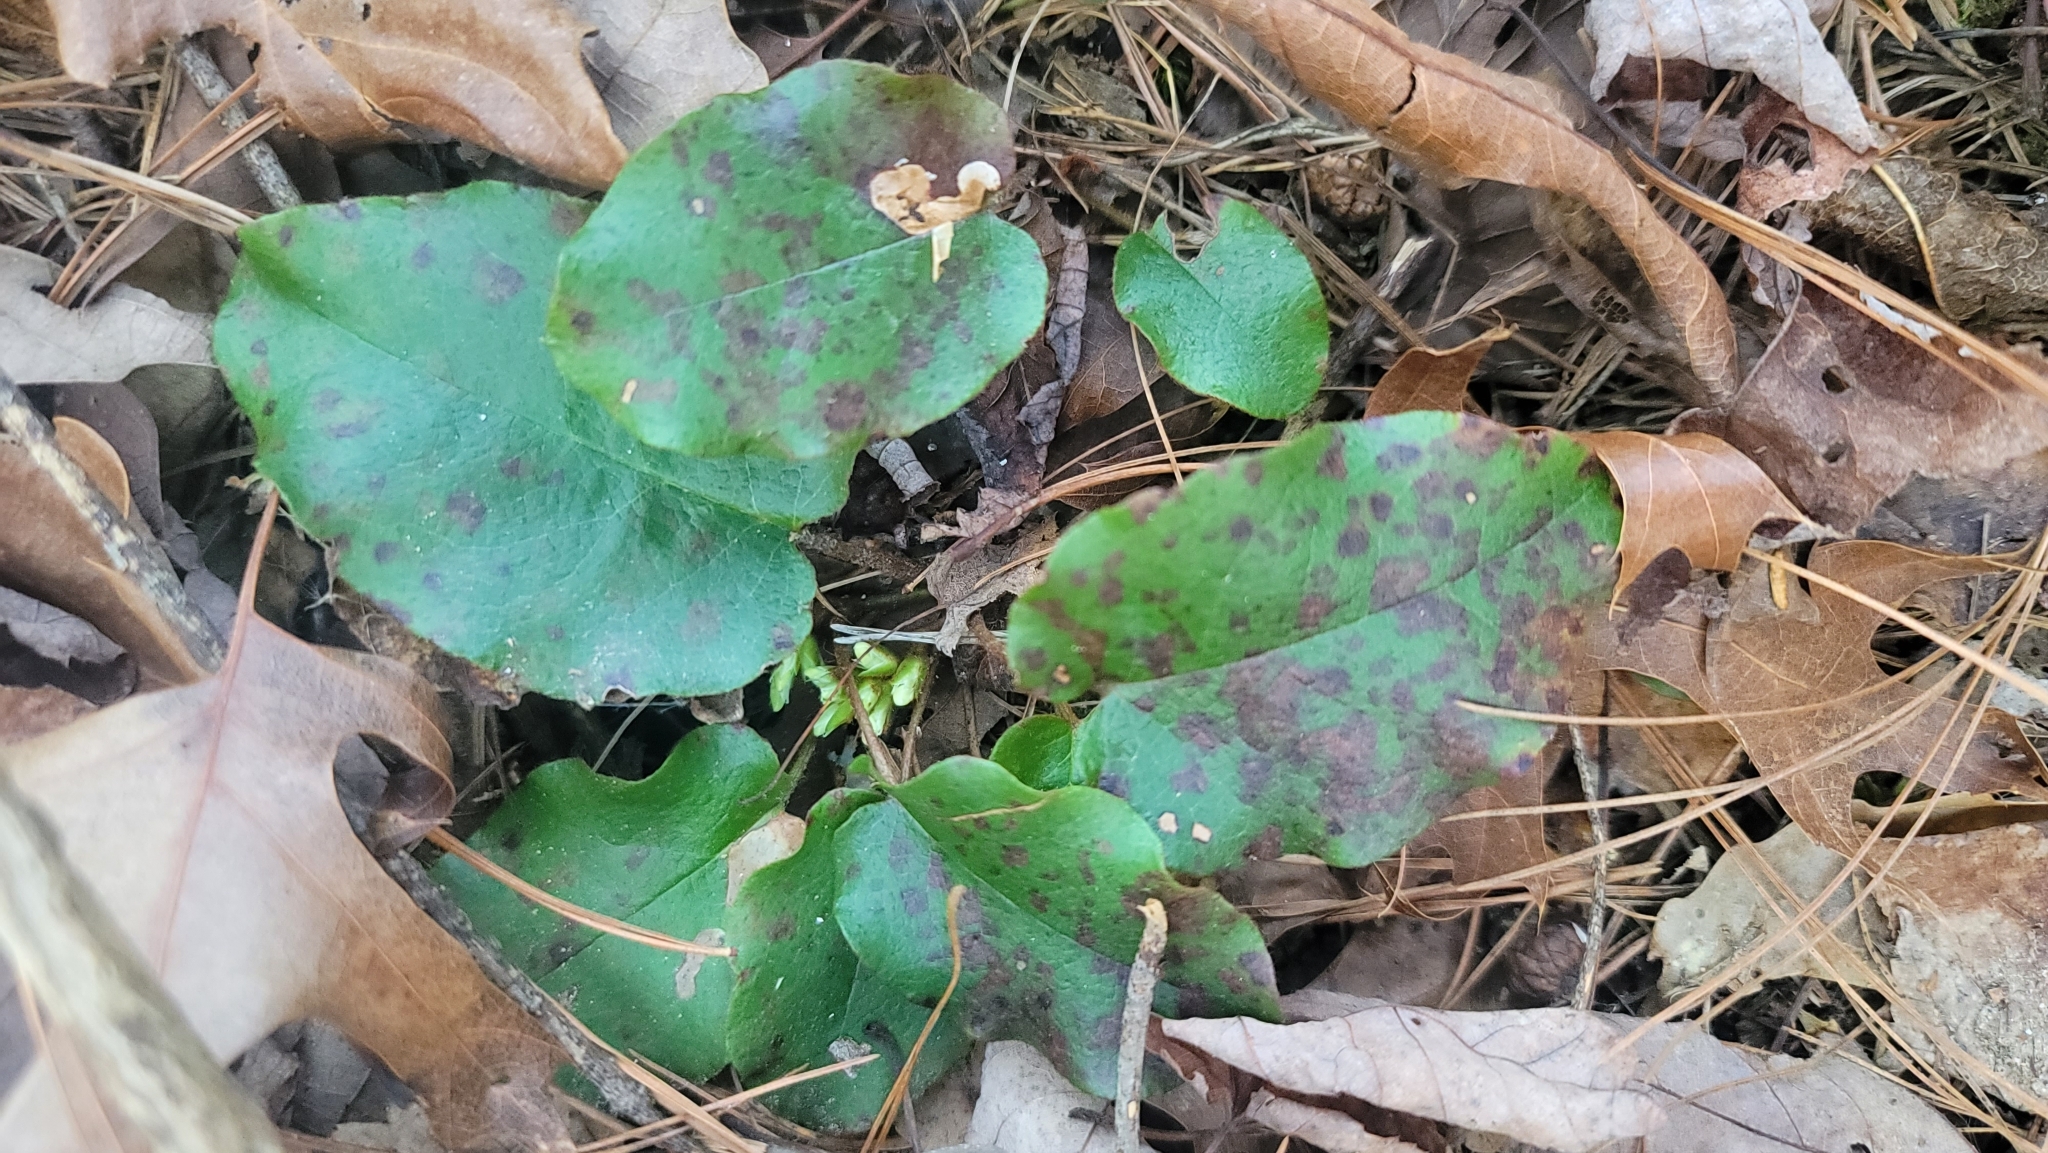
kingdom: Plantae
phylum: Tracheophyta
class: Magnoliopsida
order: Ericales
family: Ericaceae
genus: Epigaea
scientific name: Epigaea repens
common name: Gravelroot
